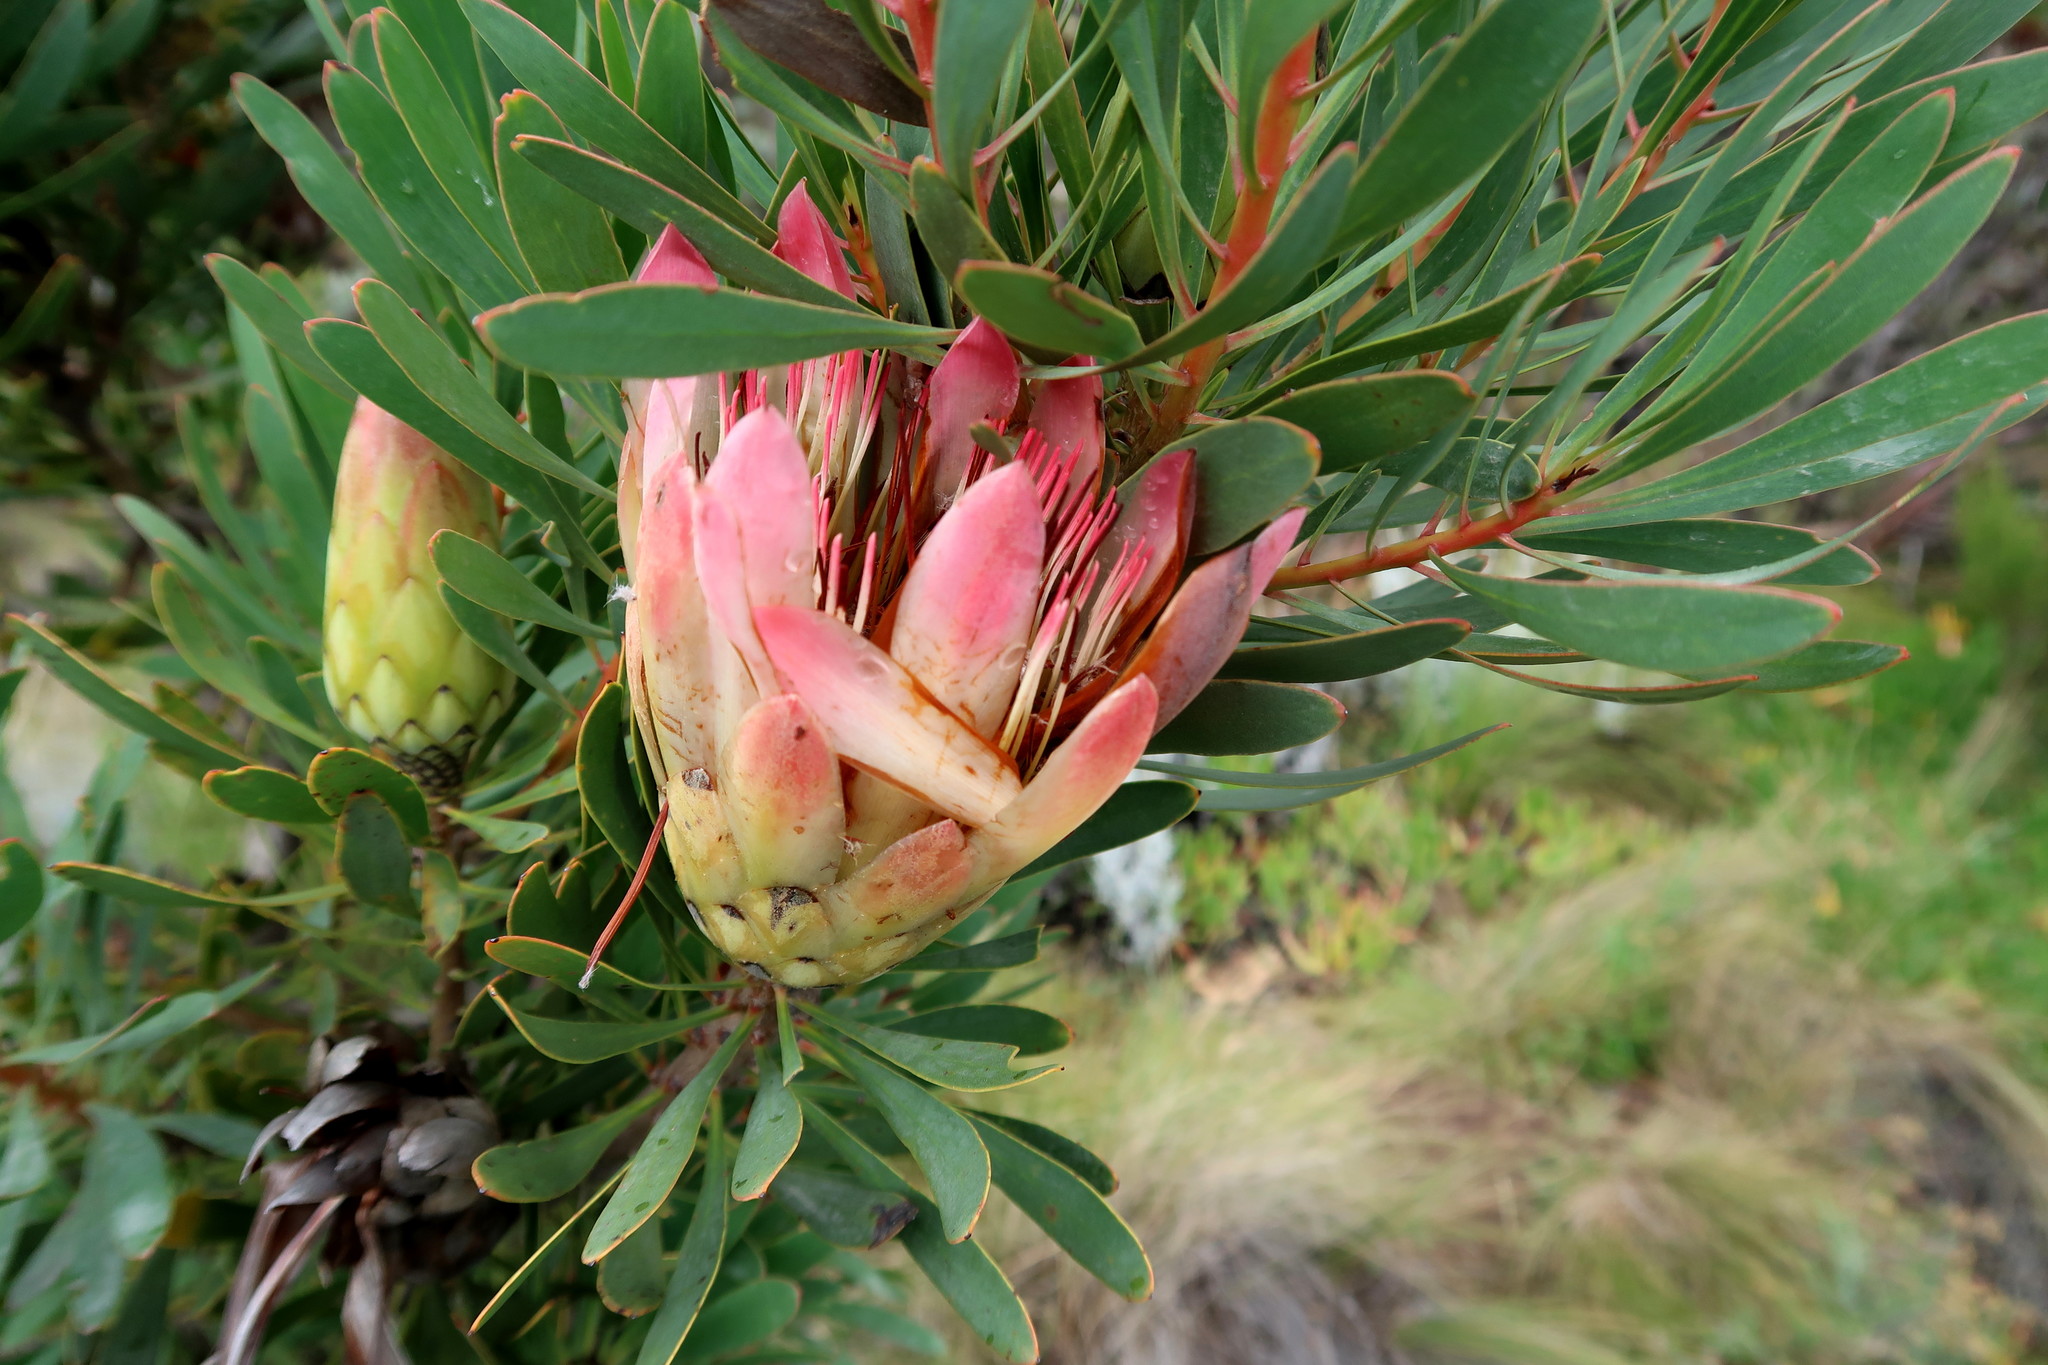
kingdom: Plantae
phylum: Tracheophyta
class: Magnoliopsida
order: Proteales
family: Proteaceae
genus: Protea
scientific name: Protea repens
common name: Sugarbush
